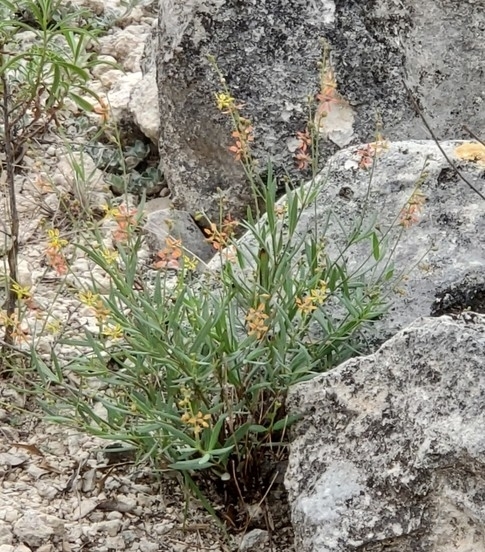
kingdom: Plantae
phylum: Tracheophyta
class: Magnoliopsida
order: Malpighiales
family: Malpighiaceae
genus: Galphimia
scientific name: Galphimia angustifolia
